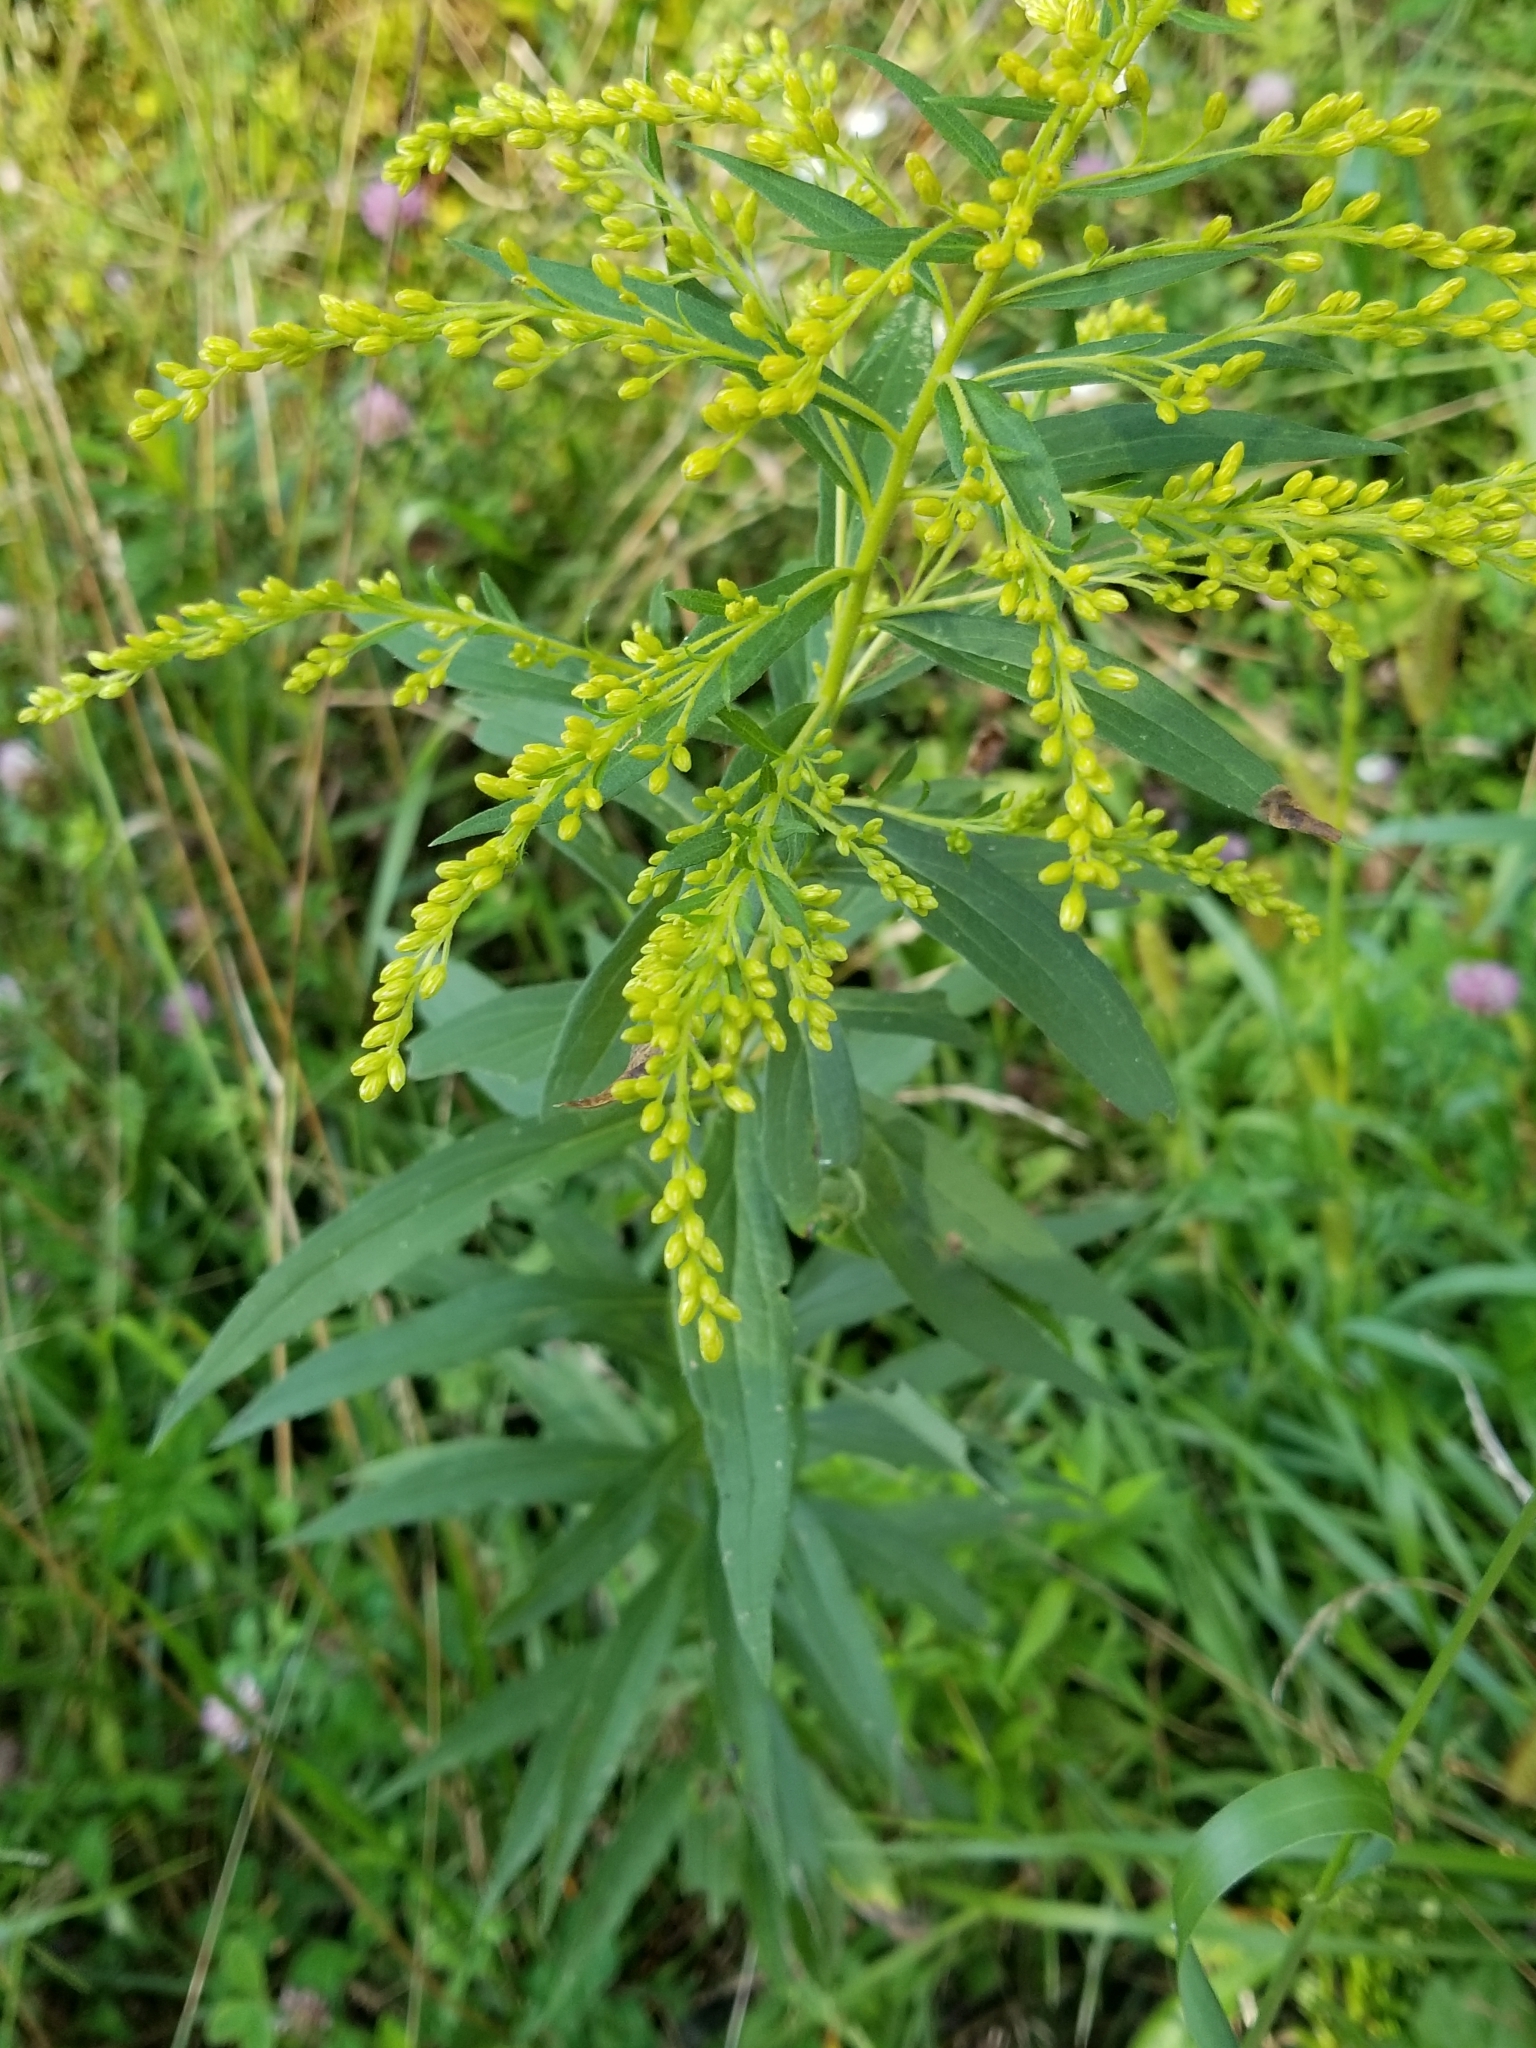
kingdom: Plantae
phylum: Tracheophyta
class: Magnoliopsida
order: Asterales
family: Asteraceae
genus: Solidago
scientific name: Solidago canadensis
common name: Canada goldenrod
